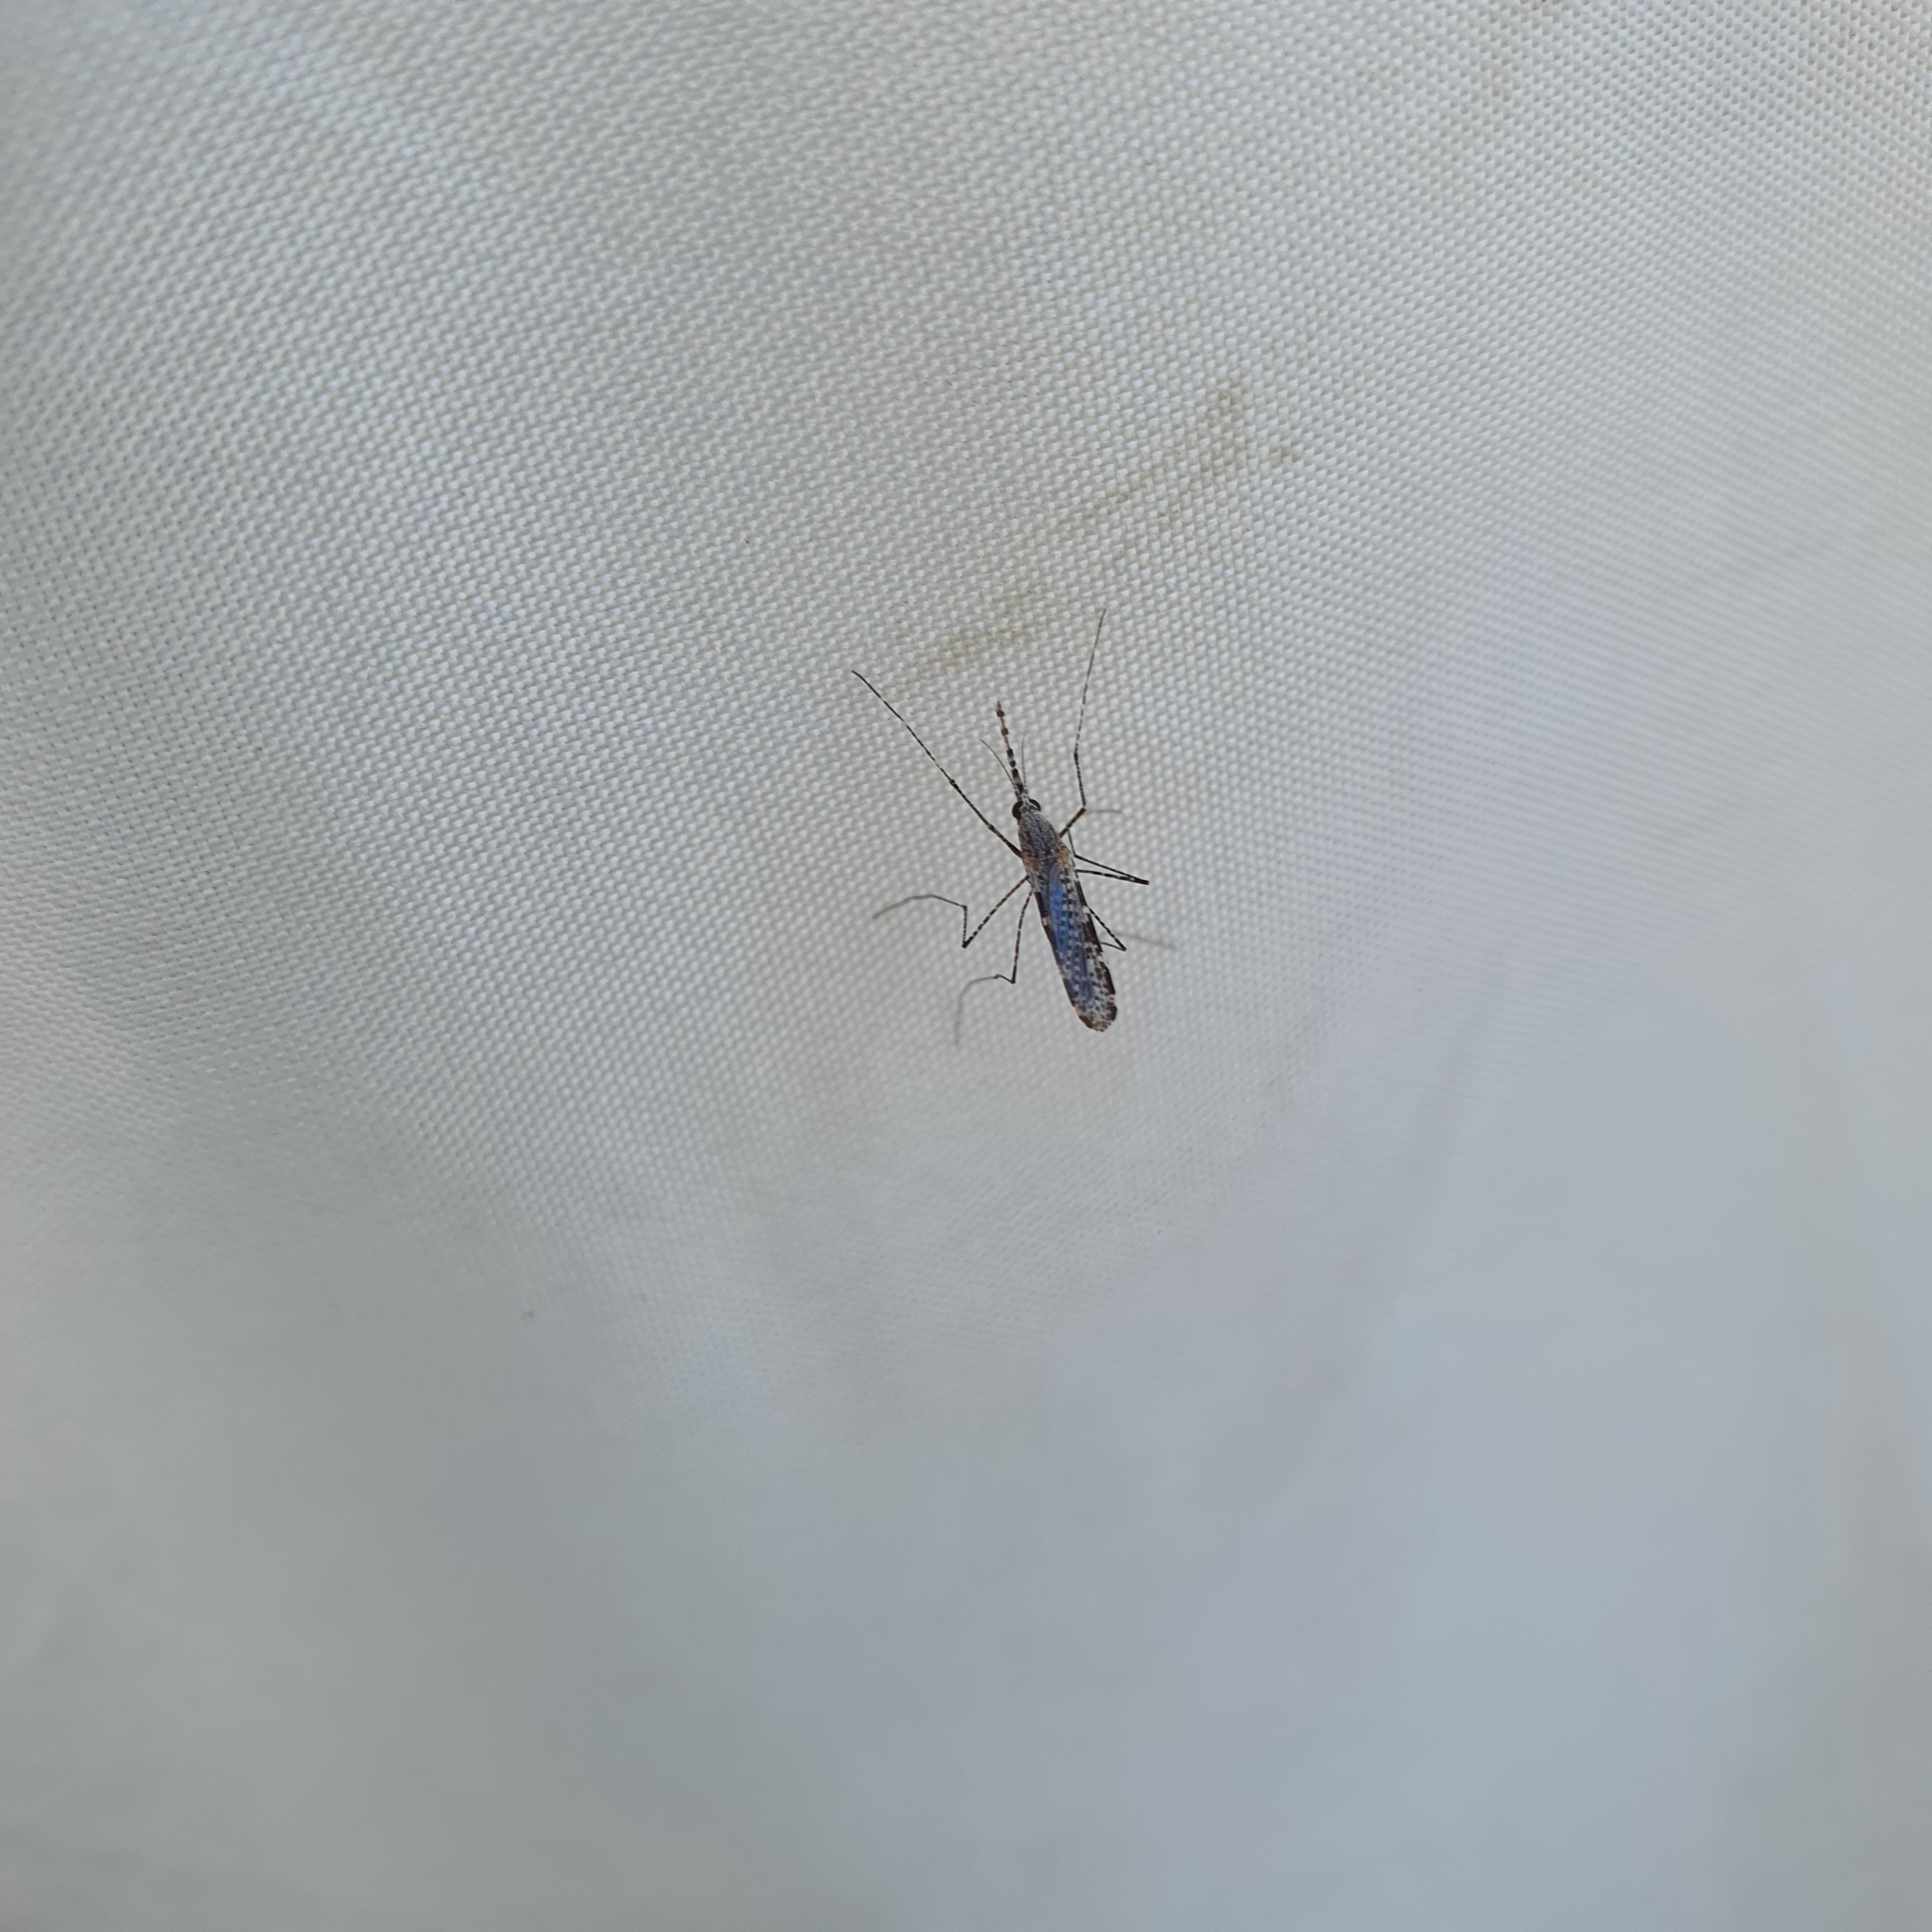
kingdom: Animalia
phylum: Arthropoda
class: Insecta
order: Diptera
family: Culicidae
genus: Anopheles
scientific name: Anopheles annulipes
